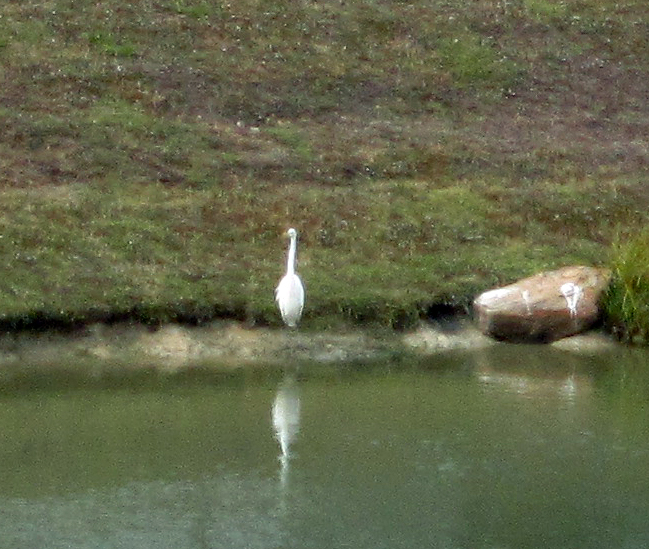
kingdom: Animalia
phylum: Chordata
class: Aves
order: Pelecaniformes
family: Ardeidae
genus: Ardea
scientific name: Ardea alba
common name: Great egret
